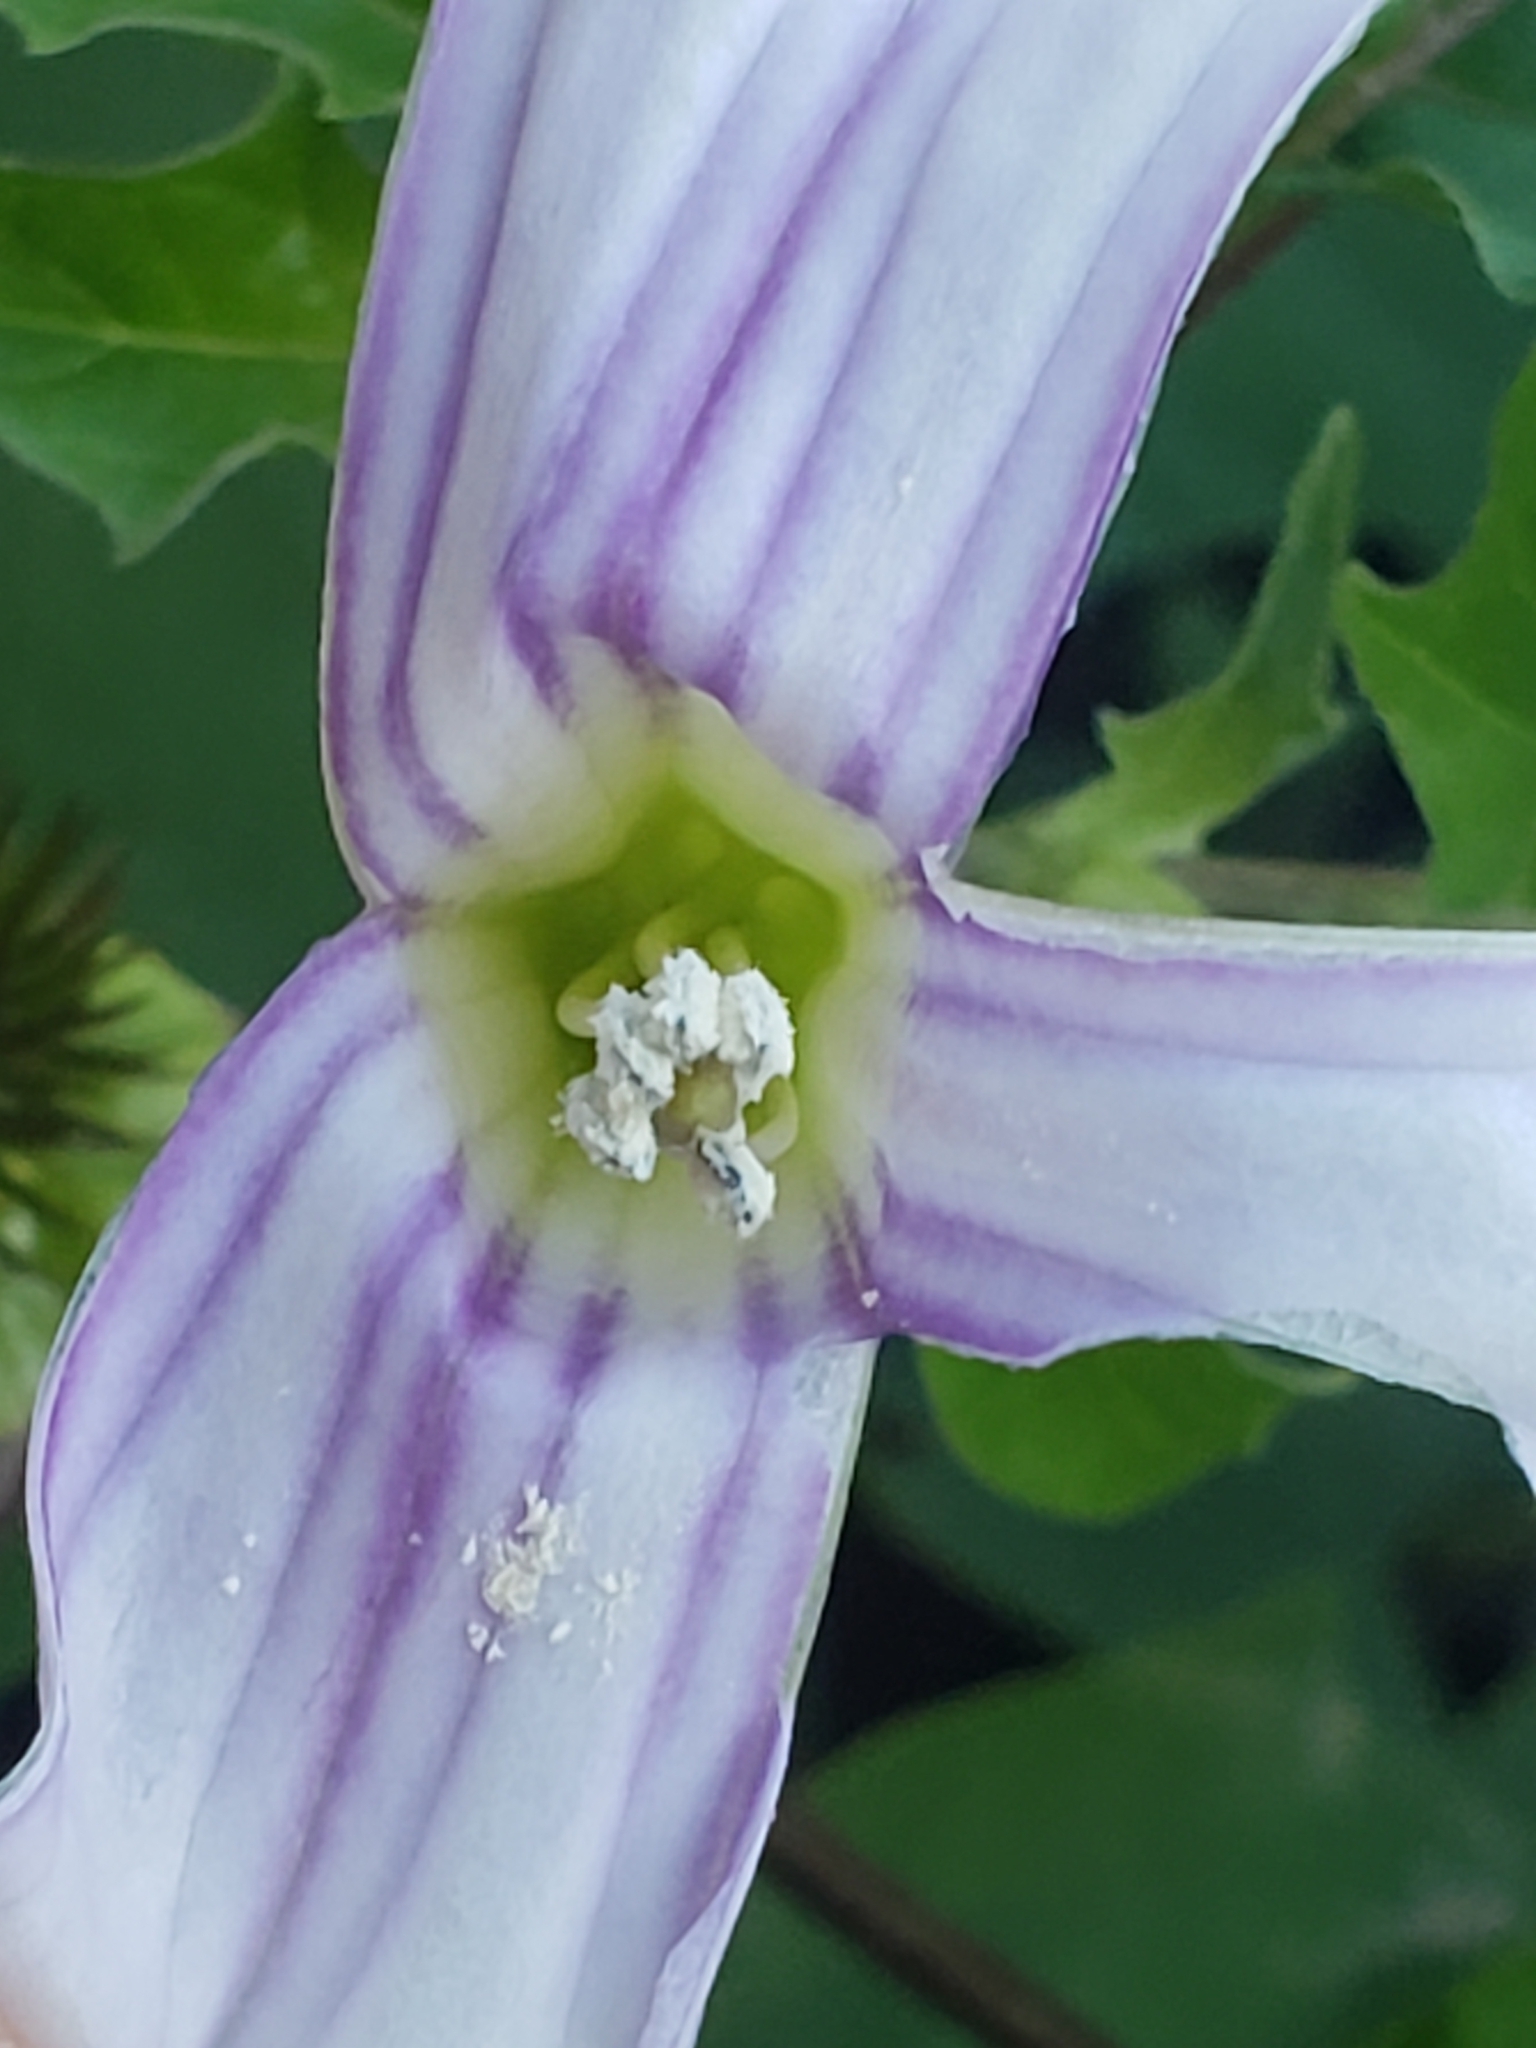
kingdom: Plantae
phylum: Tracheophyta
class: Magnoliopsida
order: Solanales
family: Solanaceae
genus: Datura
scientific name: Datura stramonium
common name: Thorn-apple
